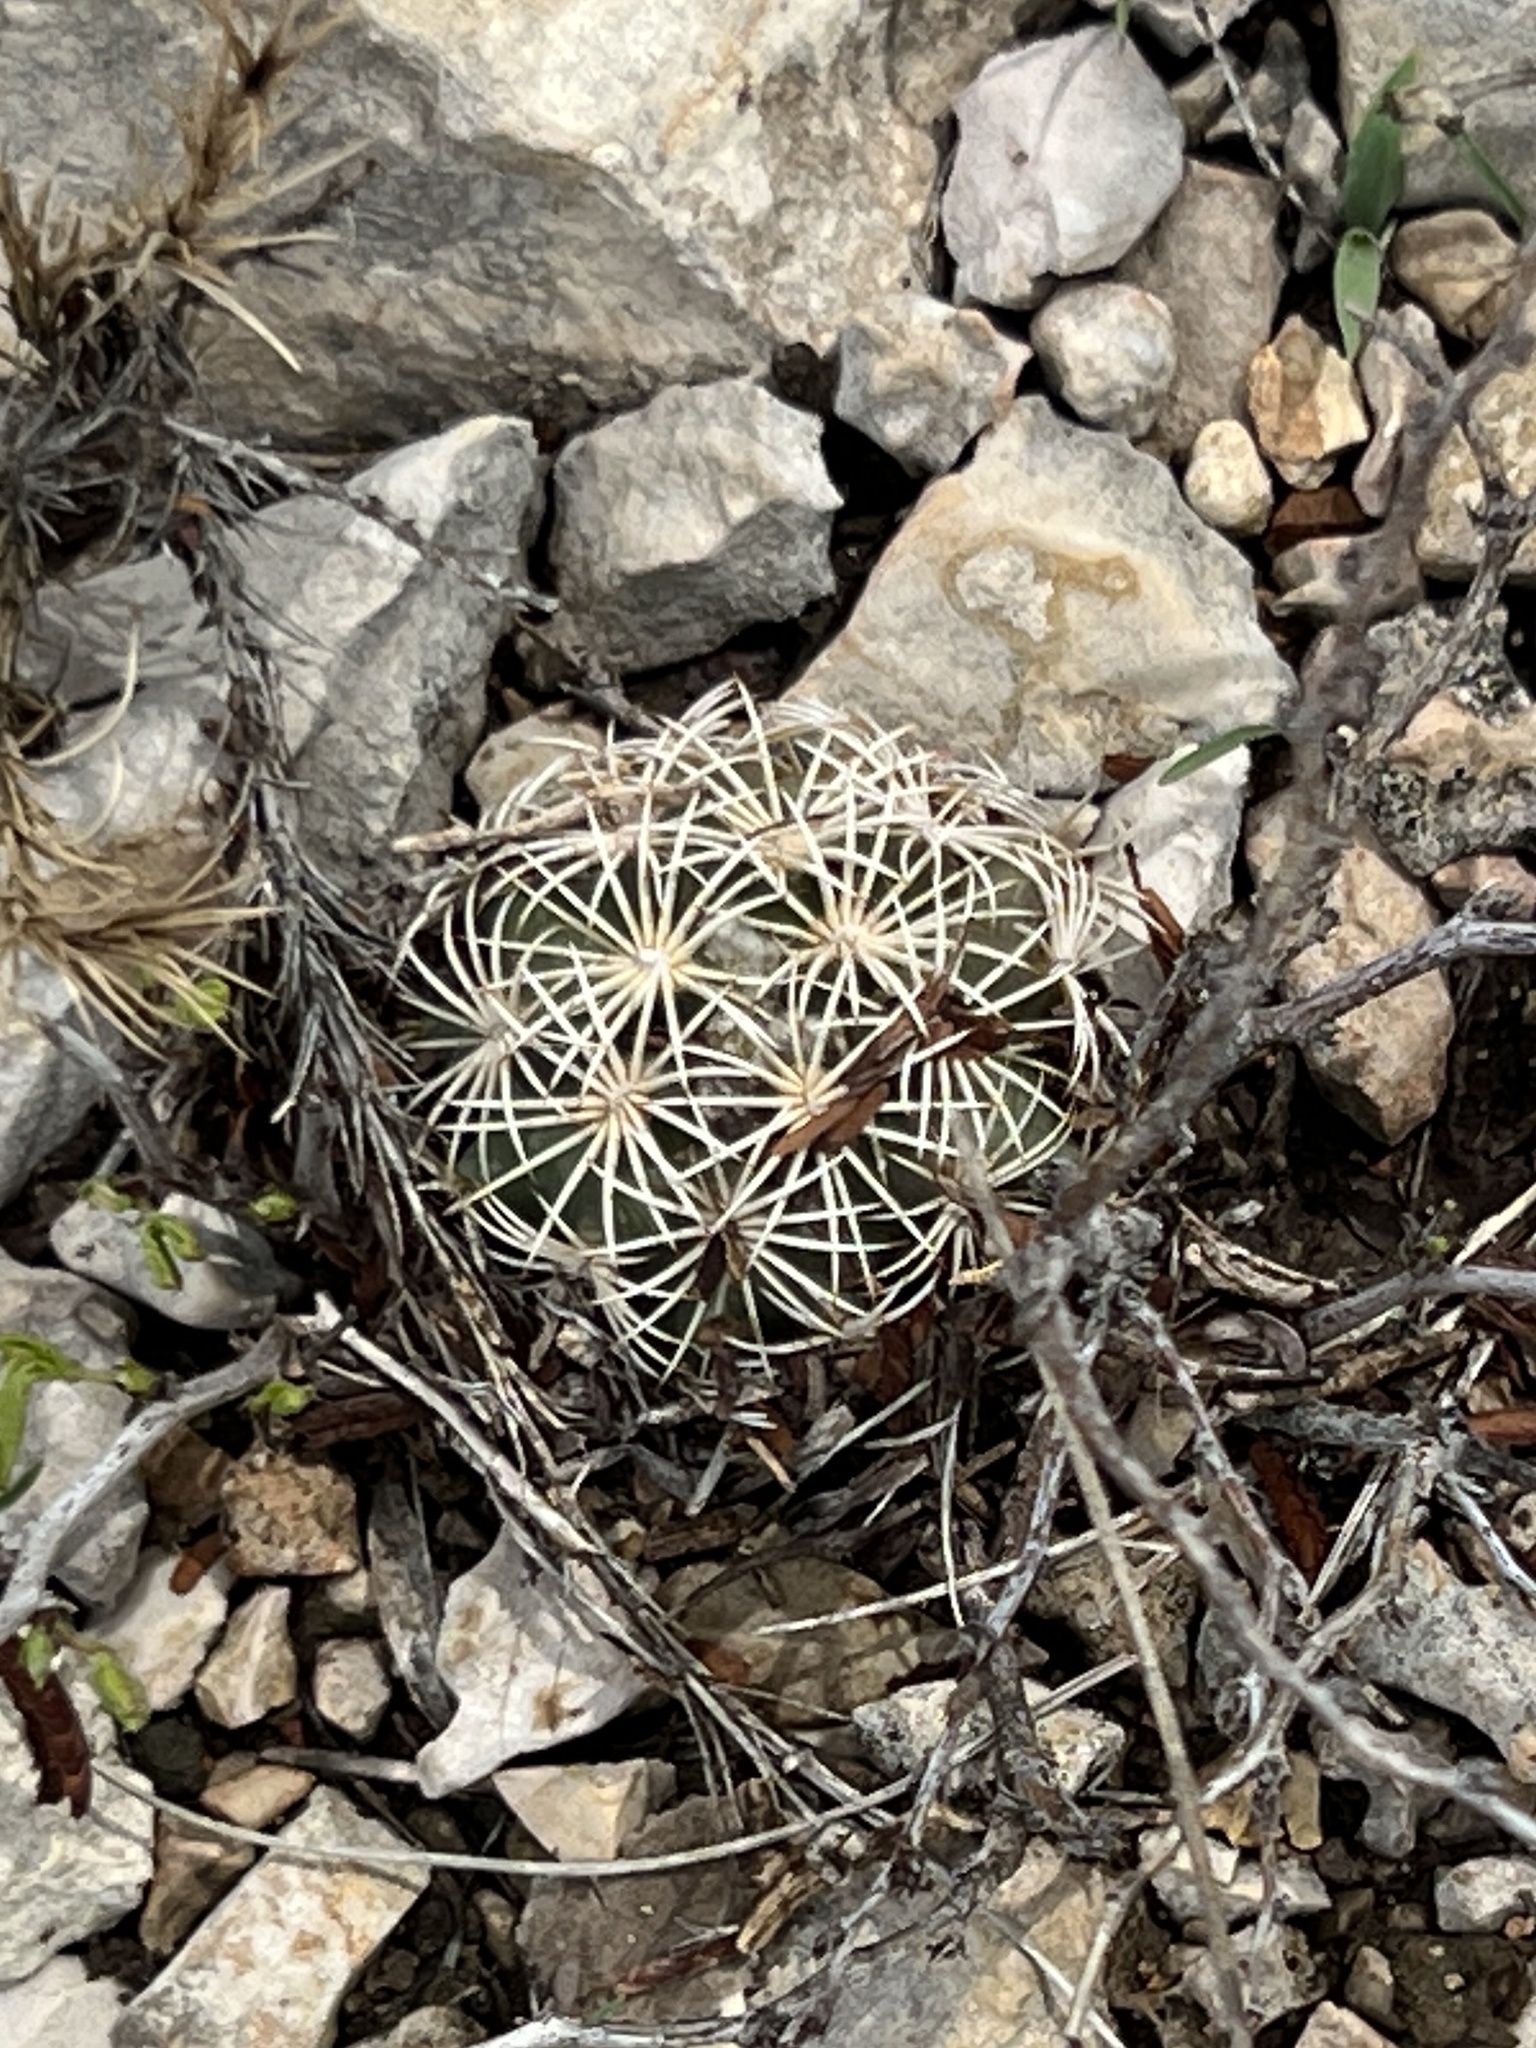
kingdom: Plantae
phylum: Tracheophyta
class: Magnoliopsida
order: Caryophyllales
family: Cactaceae
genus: Coryphantha
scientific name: Coryphantha echinus
